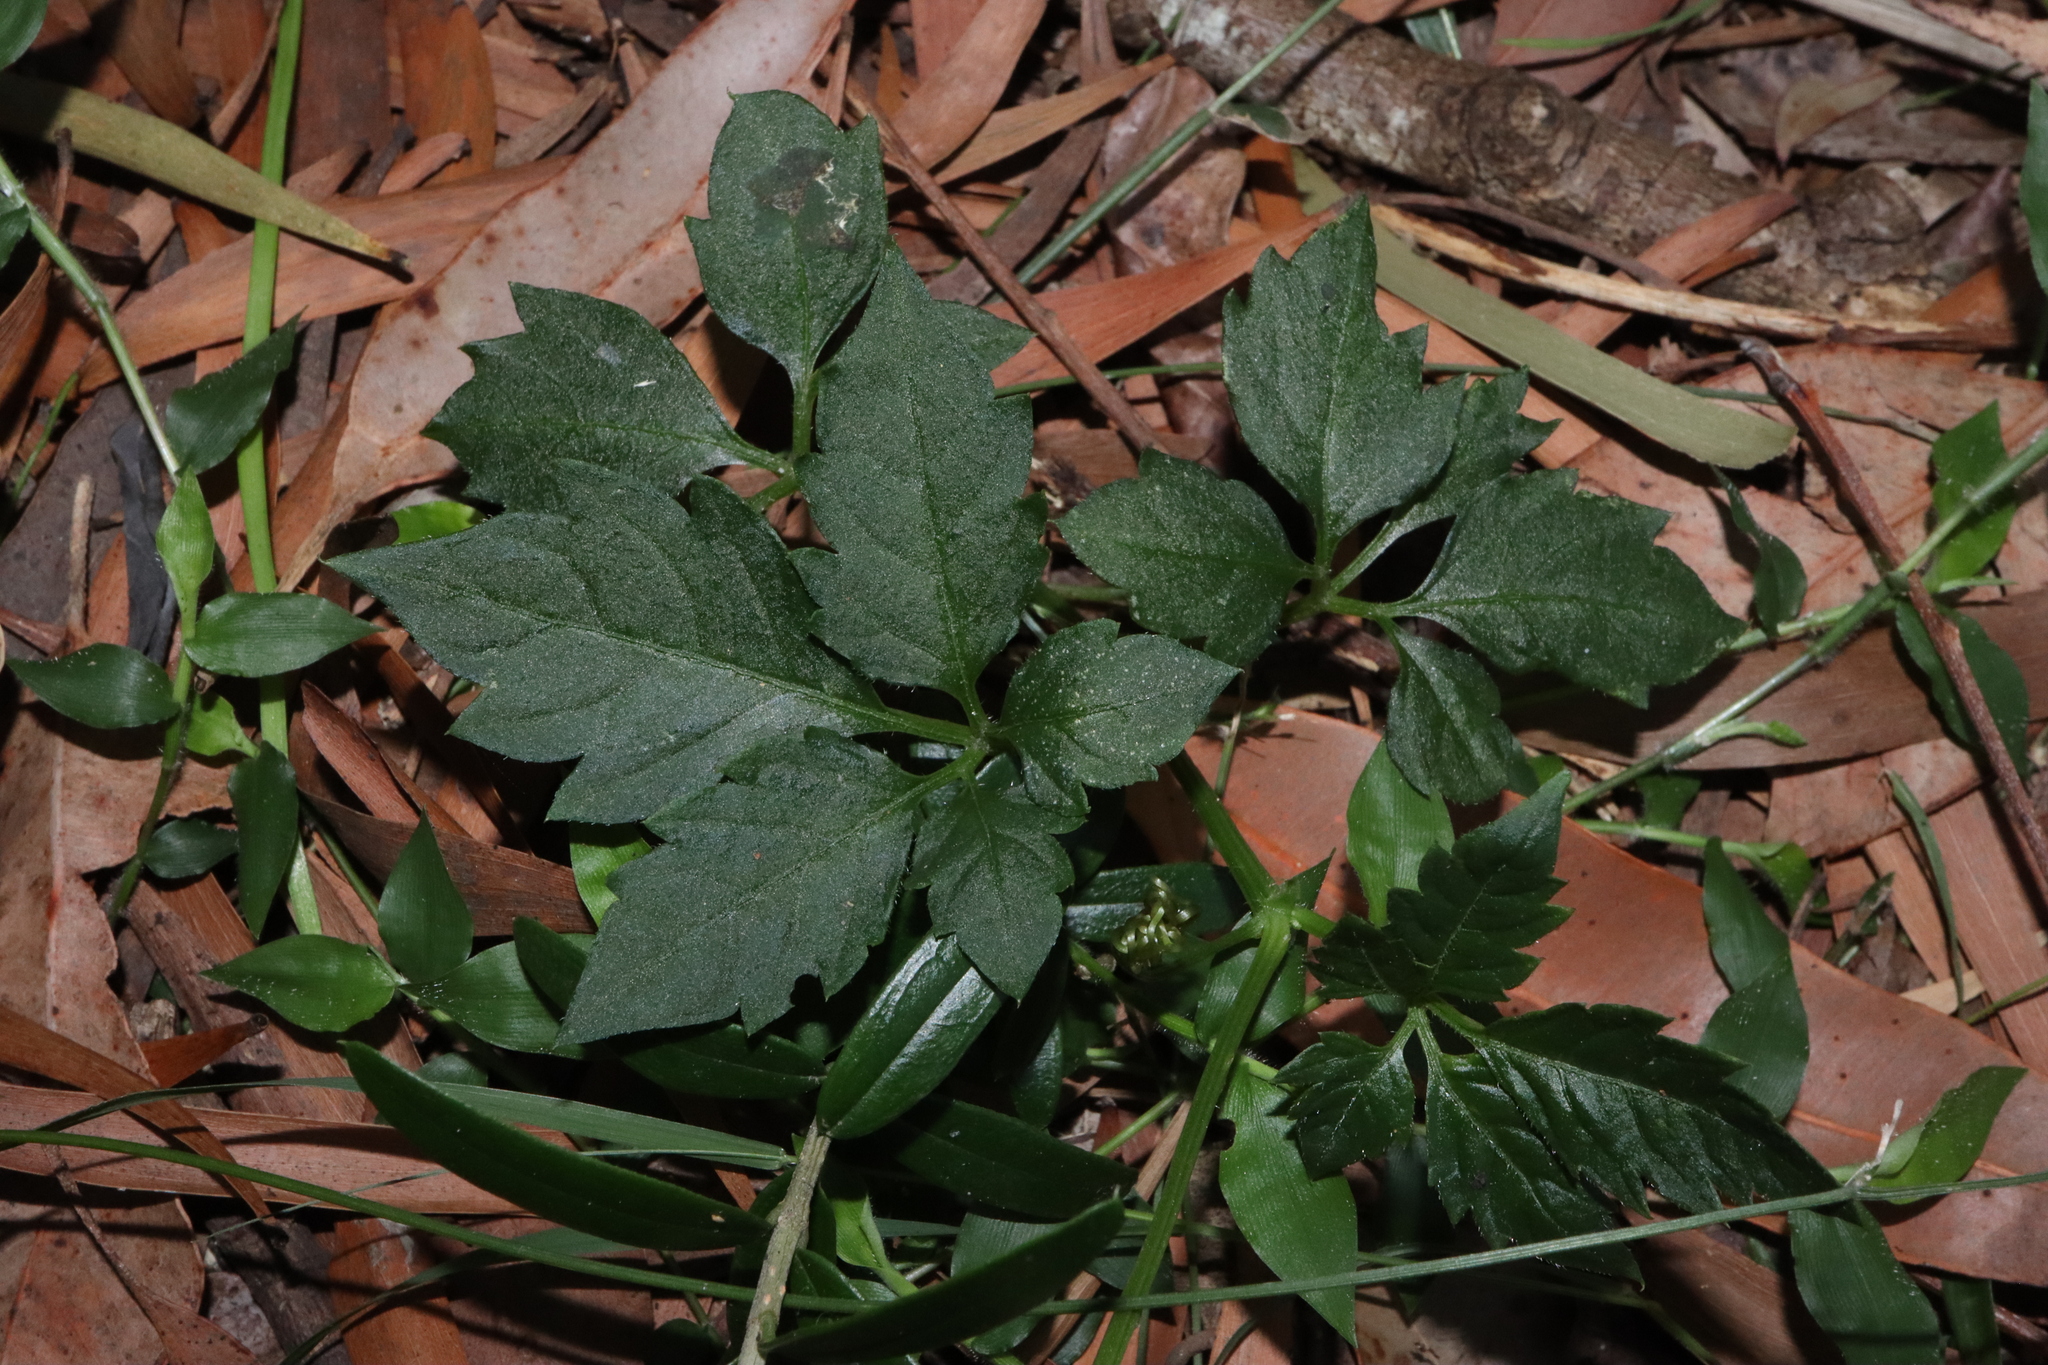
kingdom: Plantae
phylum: Tracheophyta
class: Magnoliopsida
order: Vitales
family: Vitaceae
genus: Causonis
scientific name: Causonis clematidea
